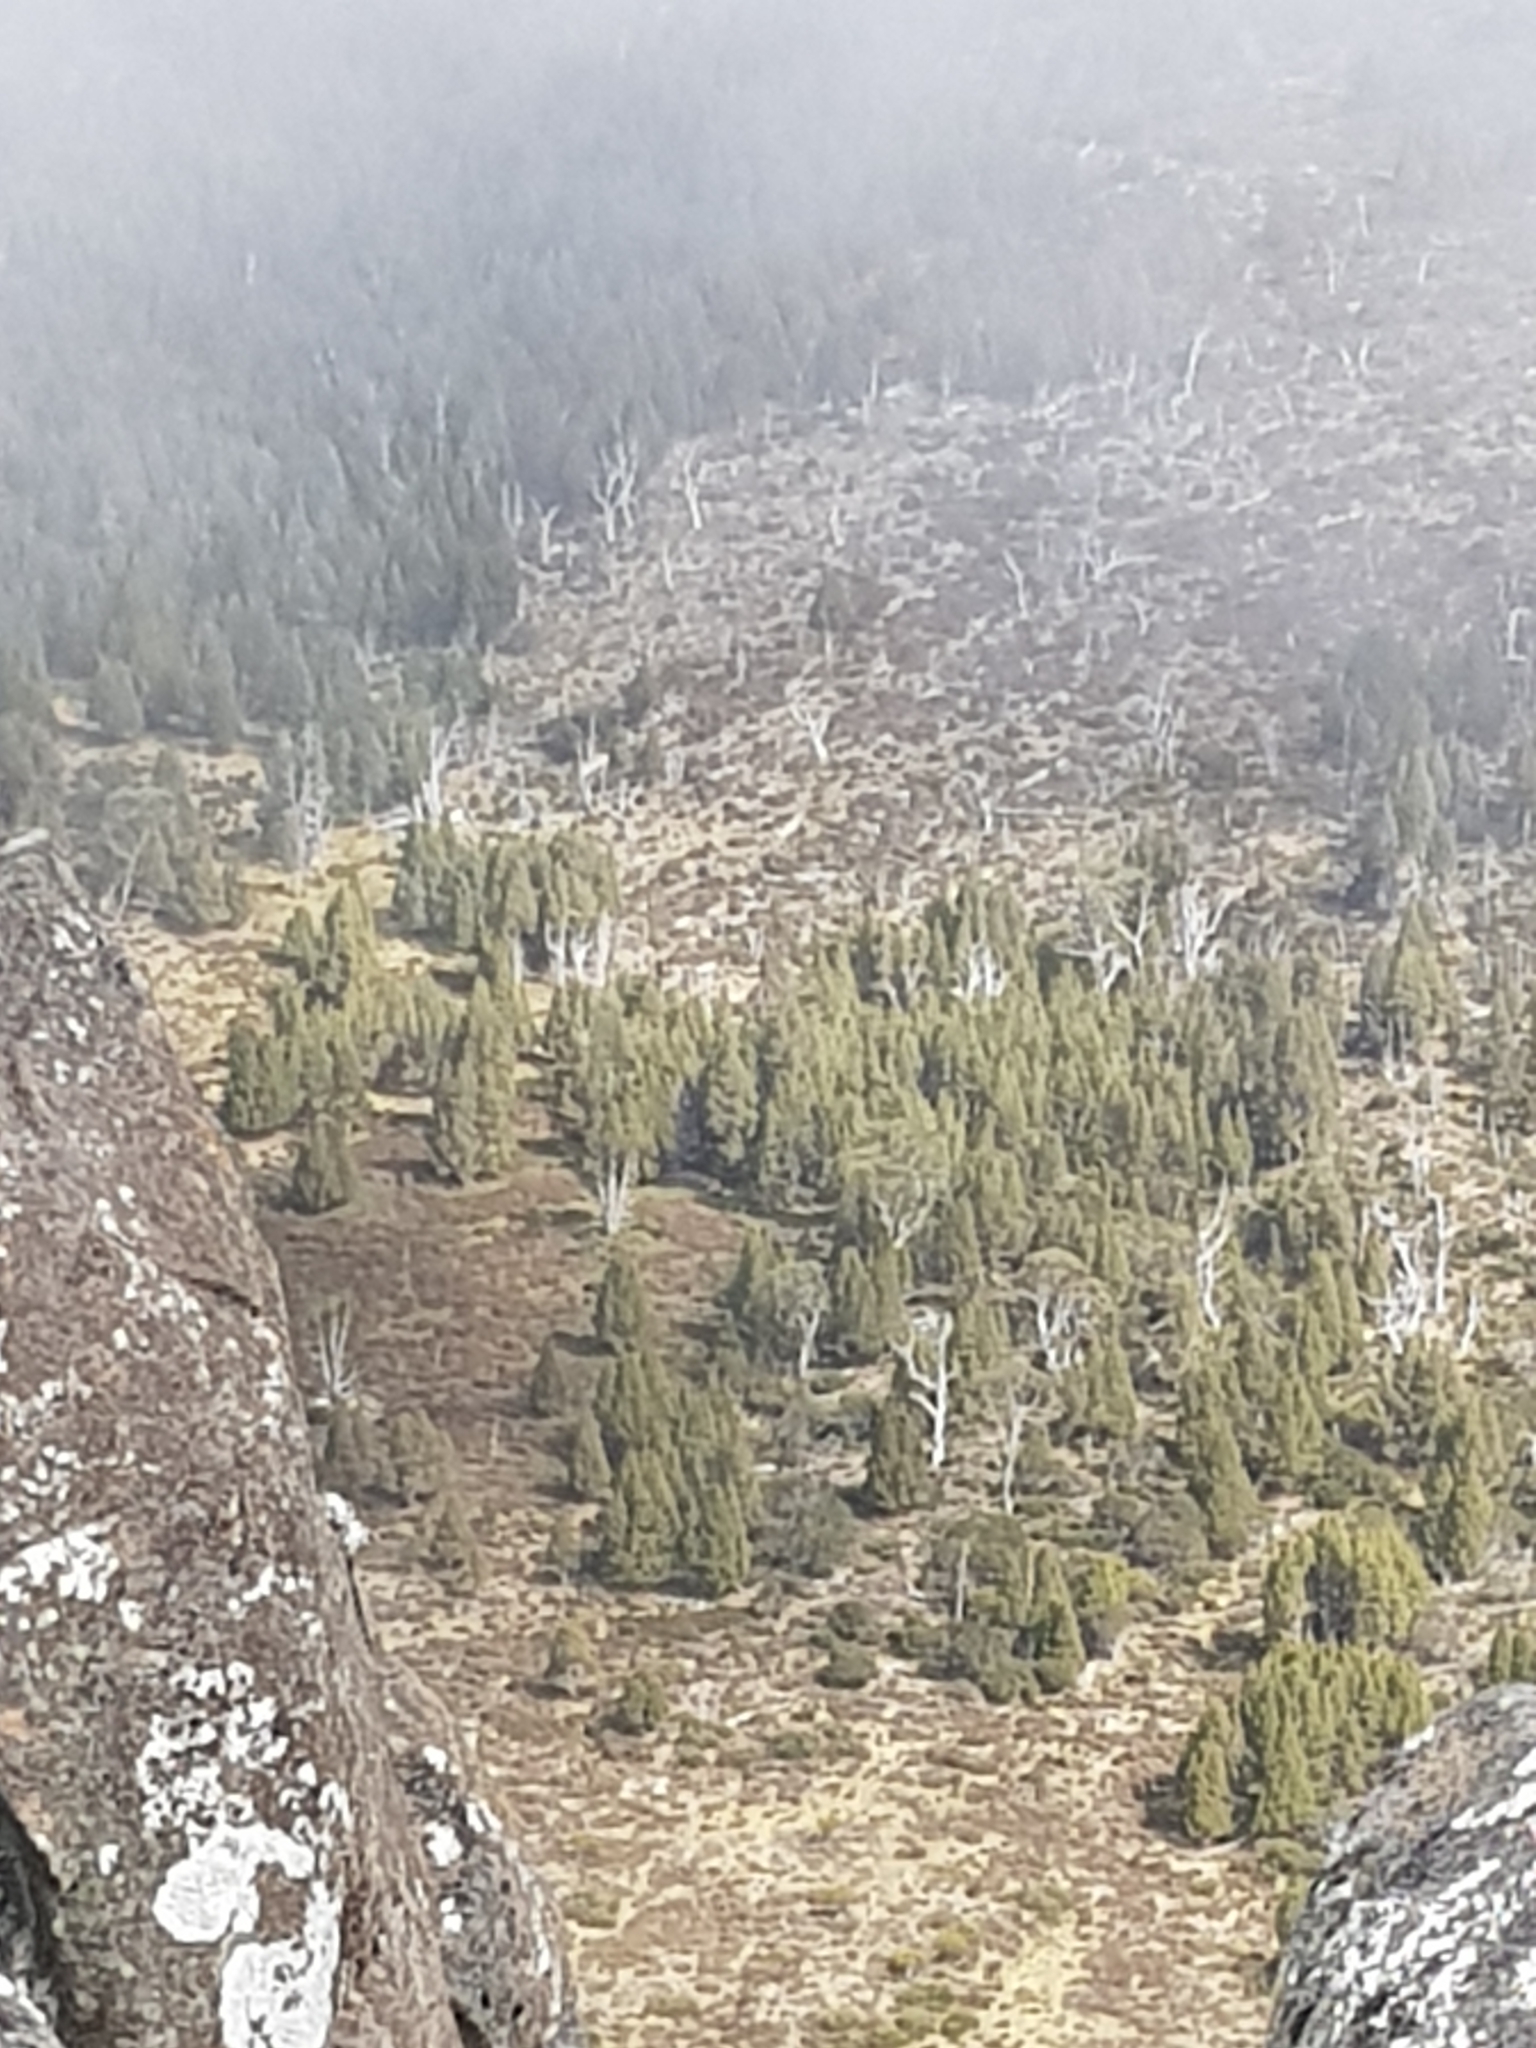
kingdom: Plantae
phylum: Tracheophyta
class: Pinopsida
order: Pinales
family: Cupressaceae
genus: Athrotaxis
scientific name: Athrotaxis cupressoides
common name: Tasmanian pencil pine
